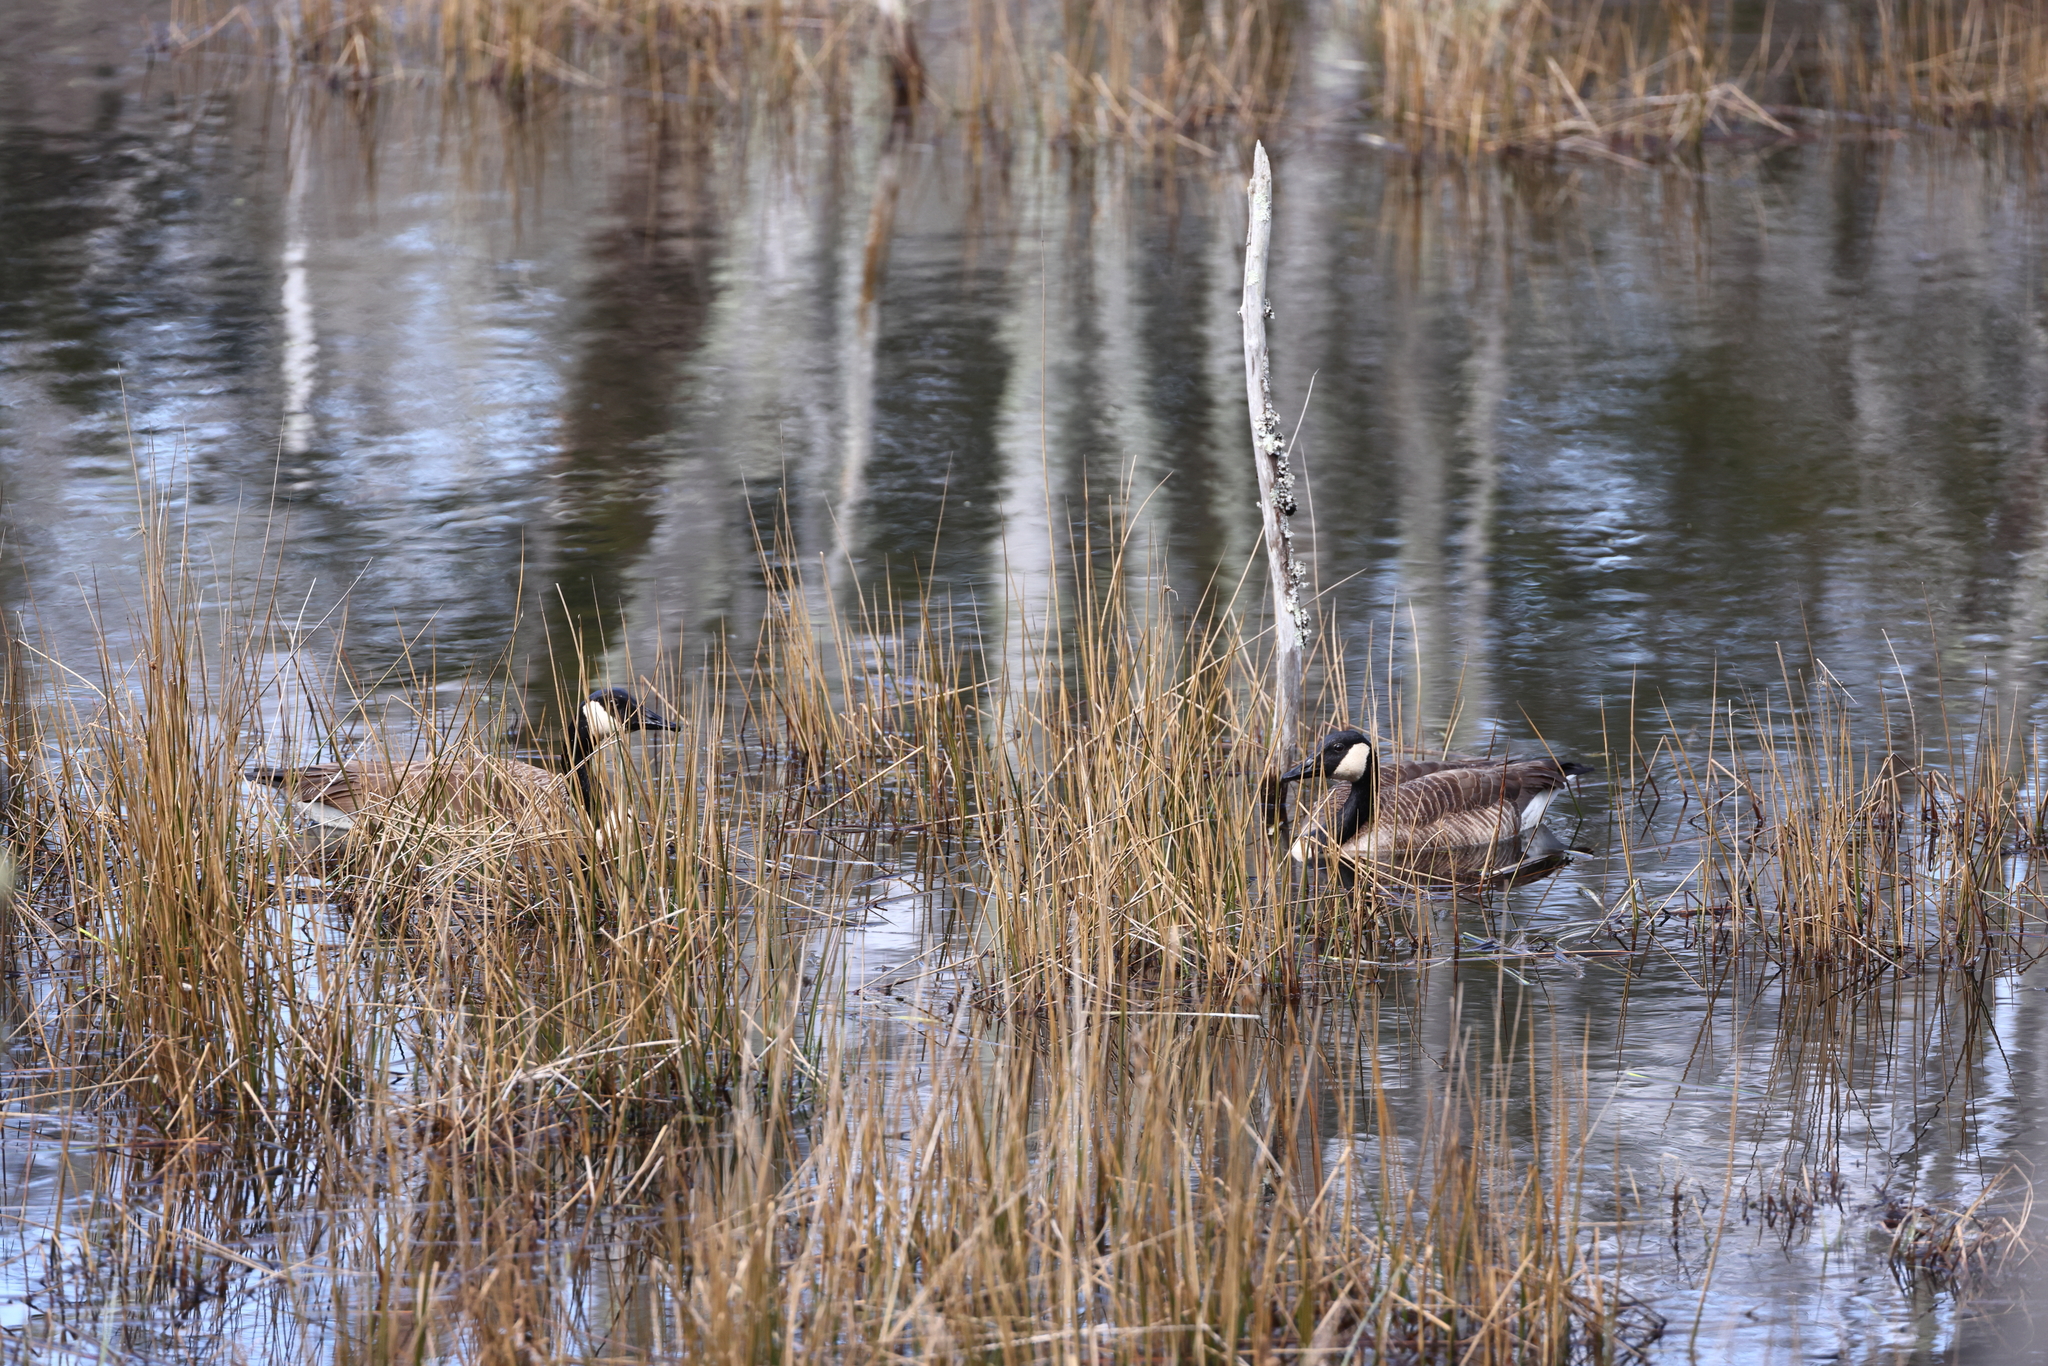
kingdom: Animalia
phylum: Chordata
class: Aves
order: Anseriformes
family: Anatidae
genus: Branta
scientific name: Branta canadensis
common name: Canada goose
